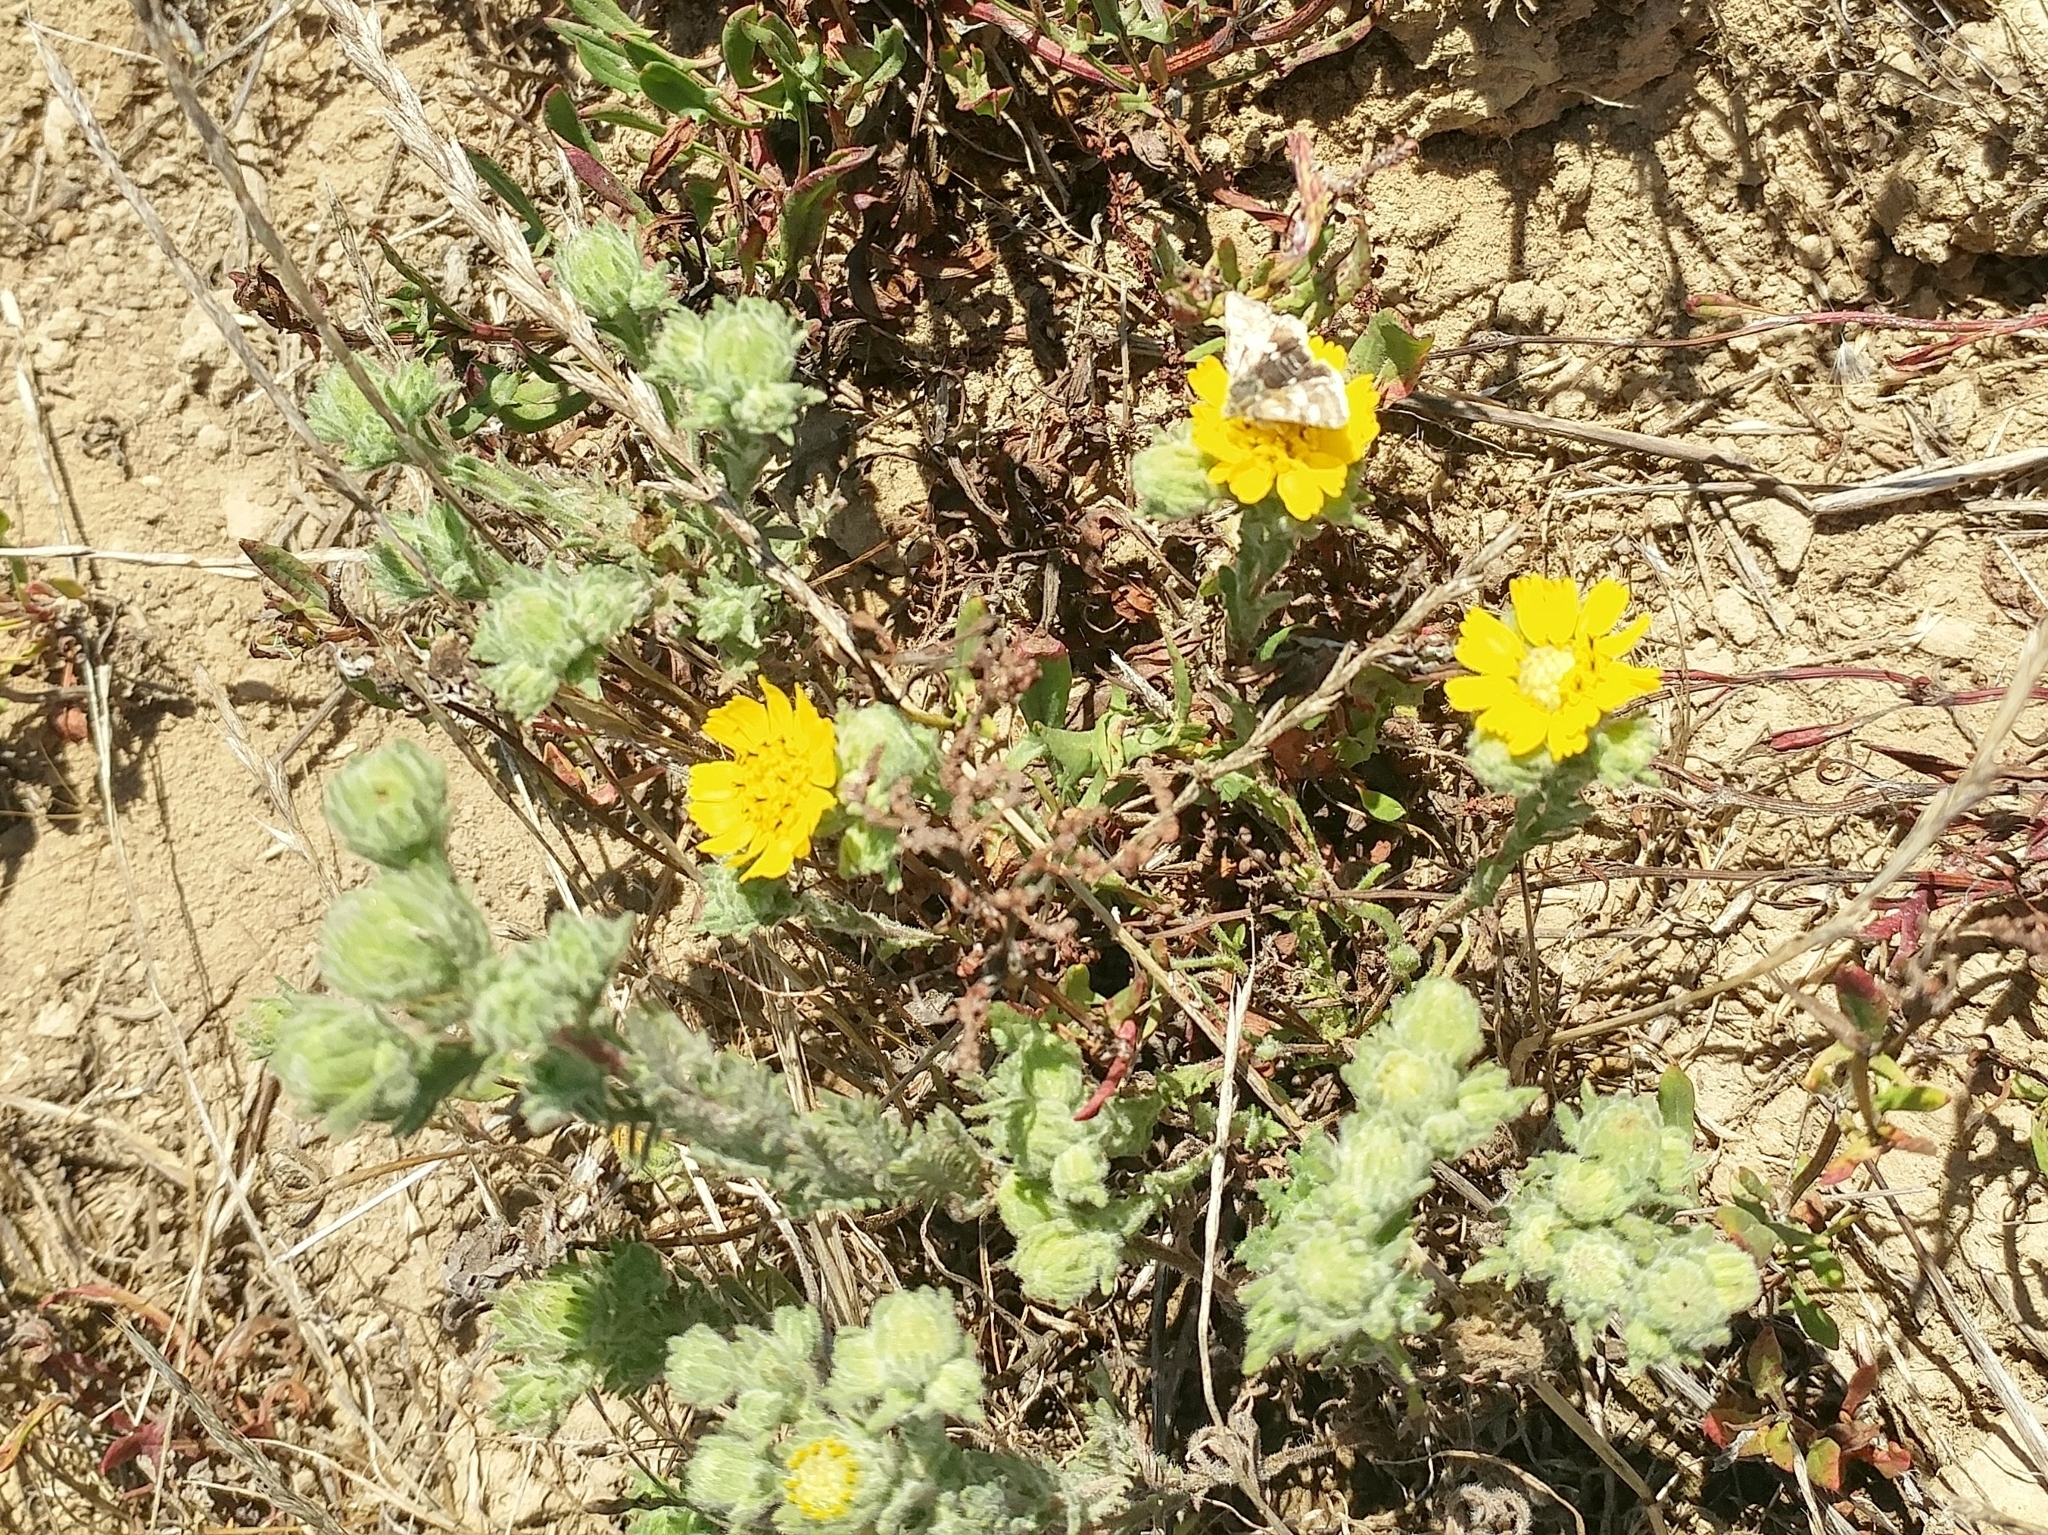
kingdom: Plantae
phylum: Tracheophyta
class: Magnoliopsida
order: Asterales
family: Asteraceae
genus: Deinandra
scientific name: Deinandra increscens
